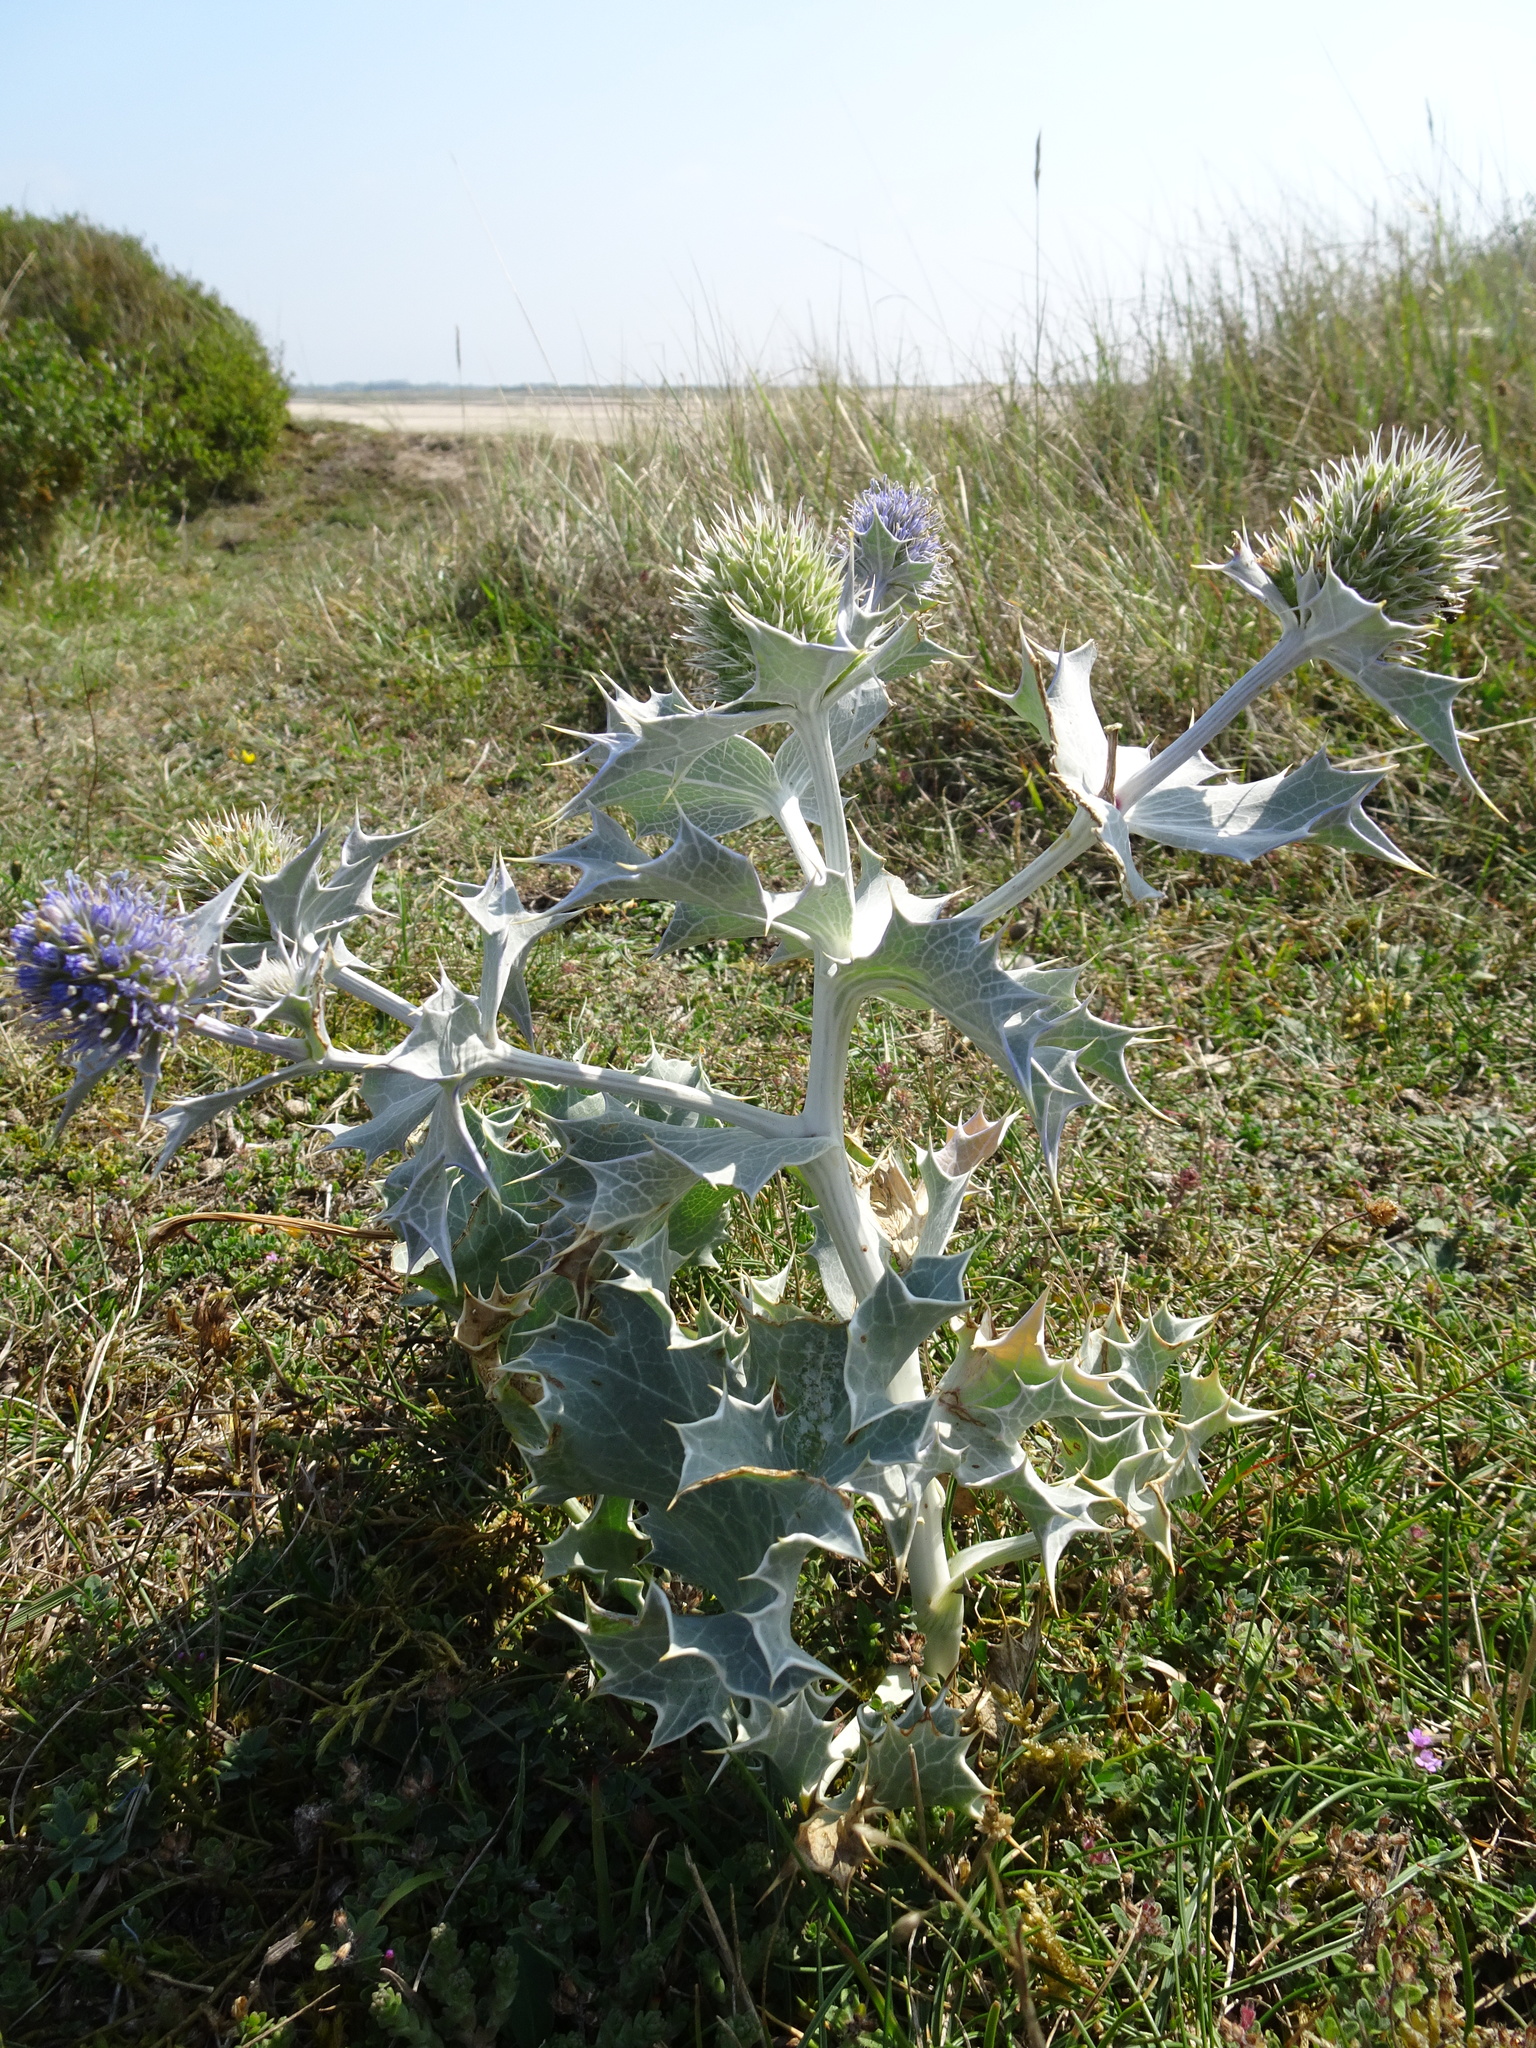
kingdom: Plantae
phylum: Tracheophyta
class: Magnoliopsida
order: Apiales
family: Apiaceae
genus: Eryngium
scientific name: Eryngium maritimum
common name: Sea-holly
